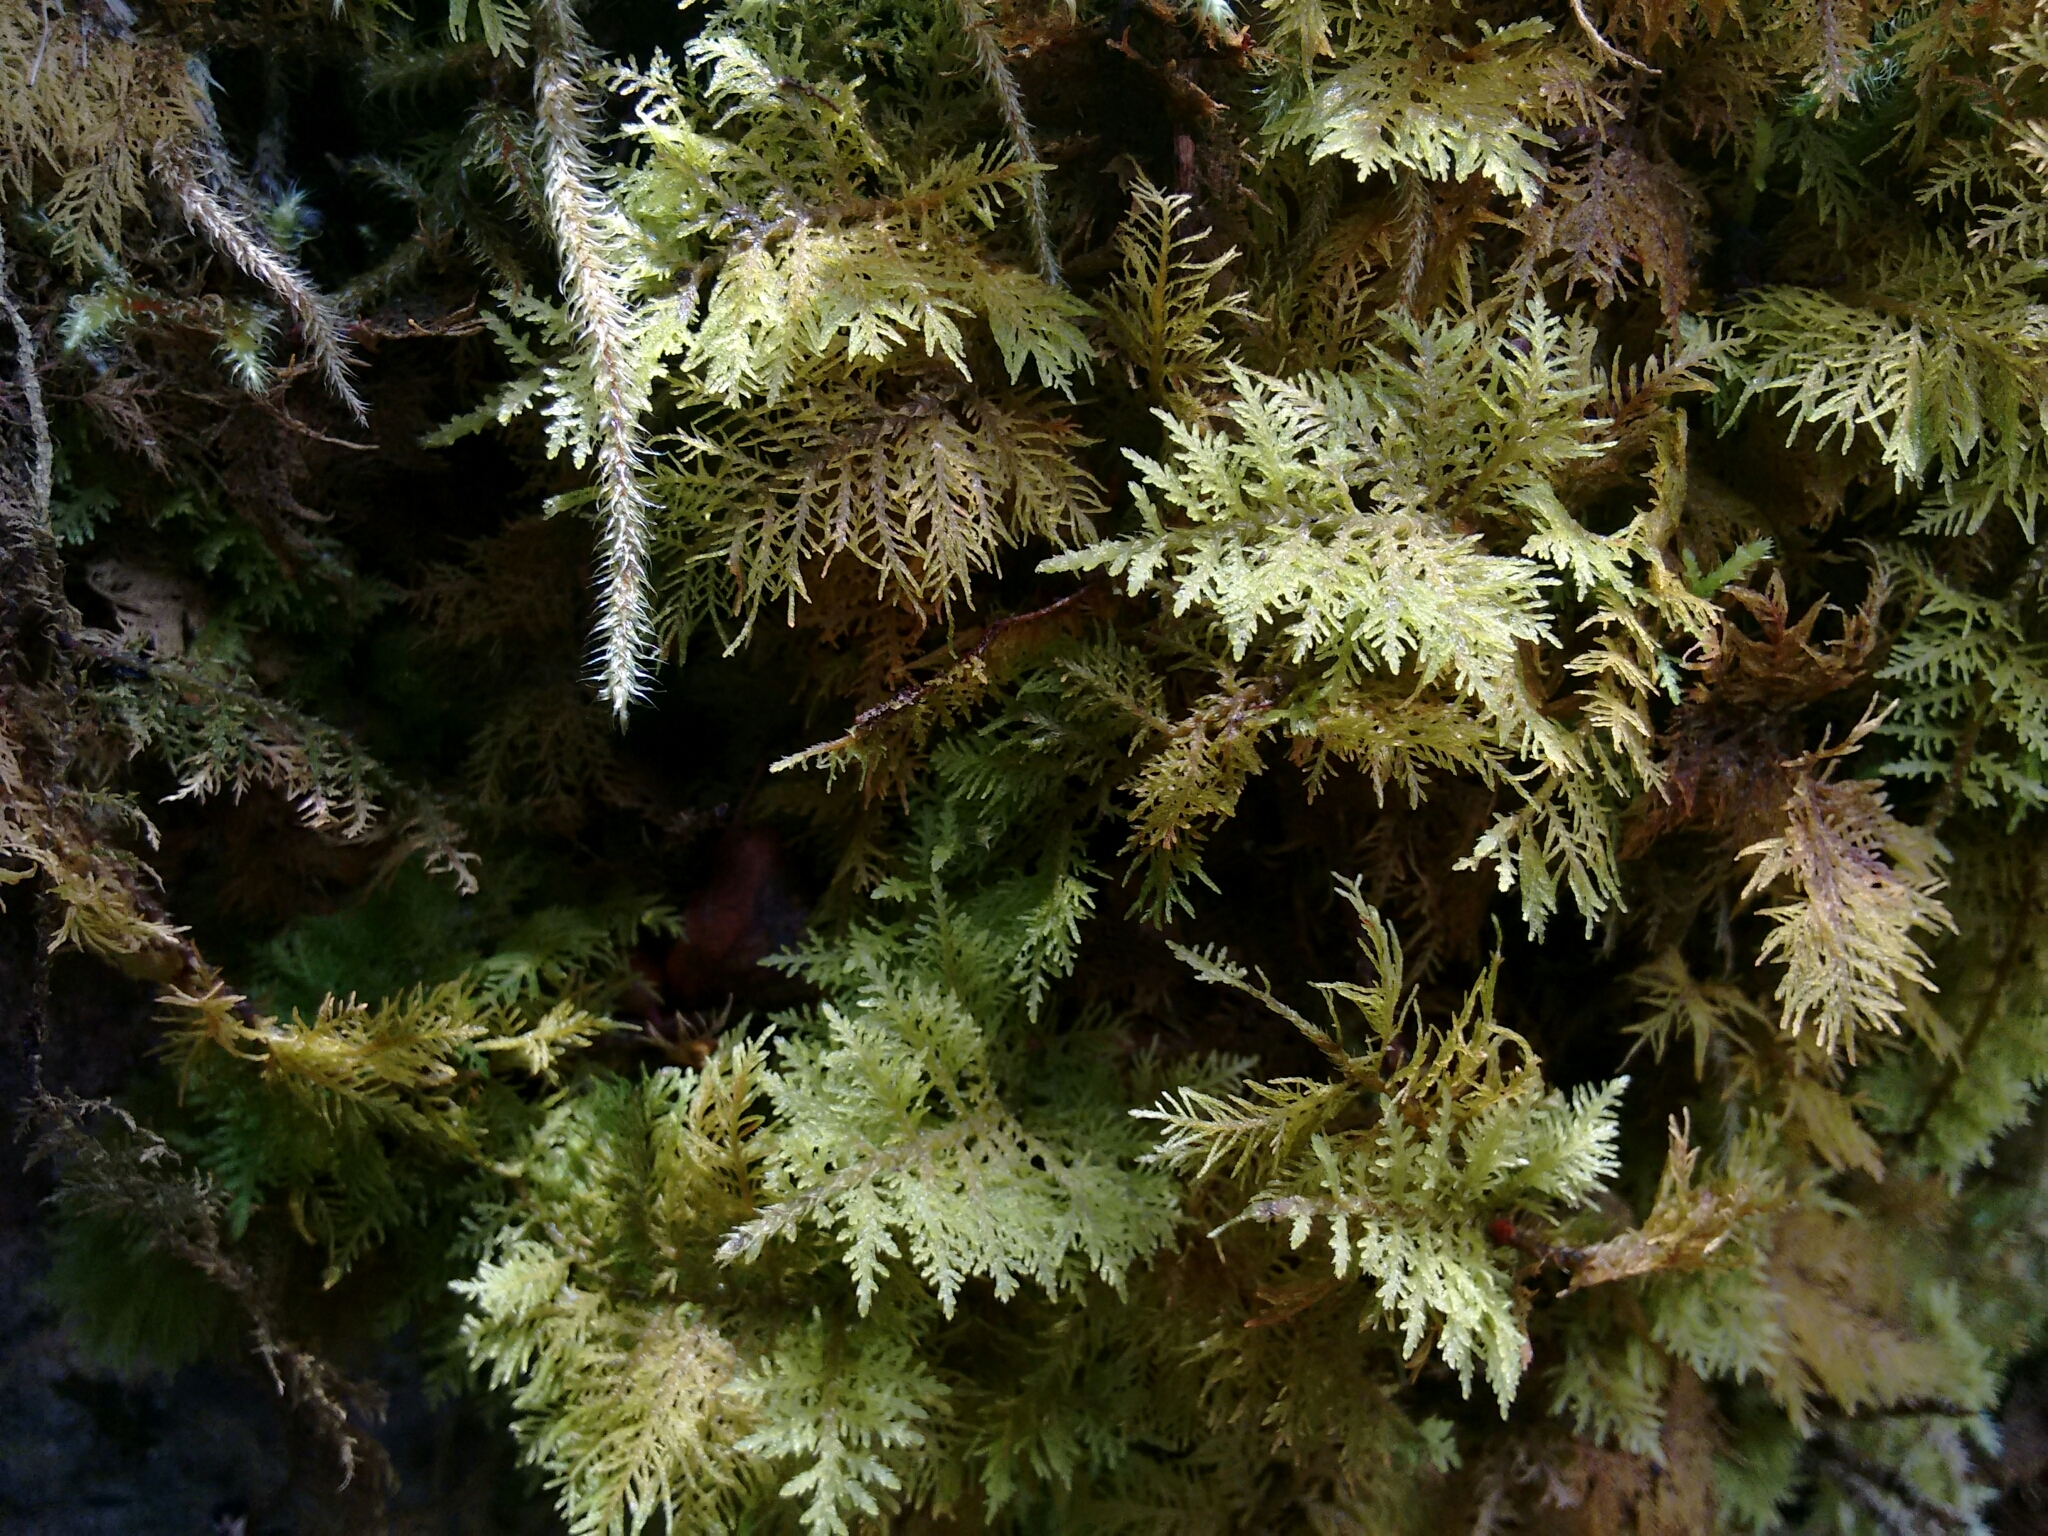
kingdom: Plantae
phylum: Bryophyta
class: Bryopsida
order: Hypnales
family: Thuidiaceae
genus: Thuidium
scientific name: Thuidium tamariscinum
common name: Common tamarisk-moss
